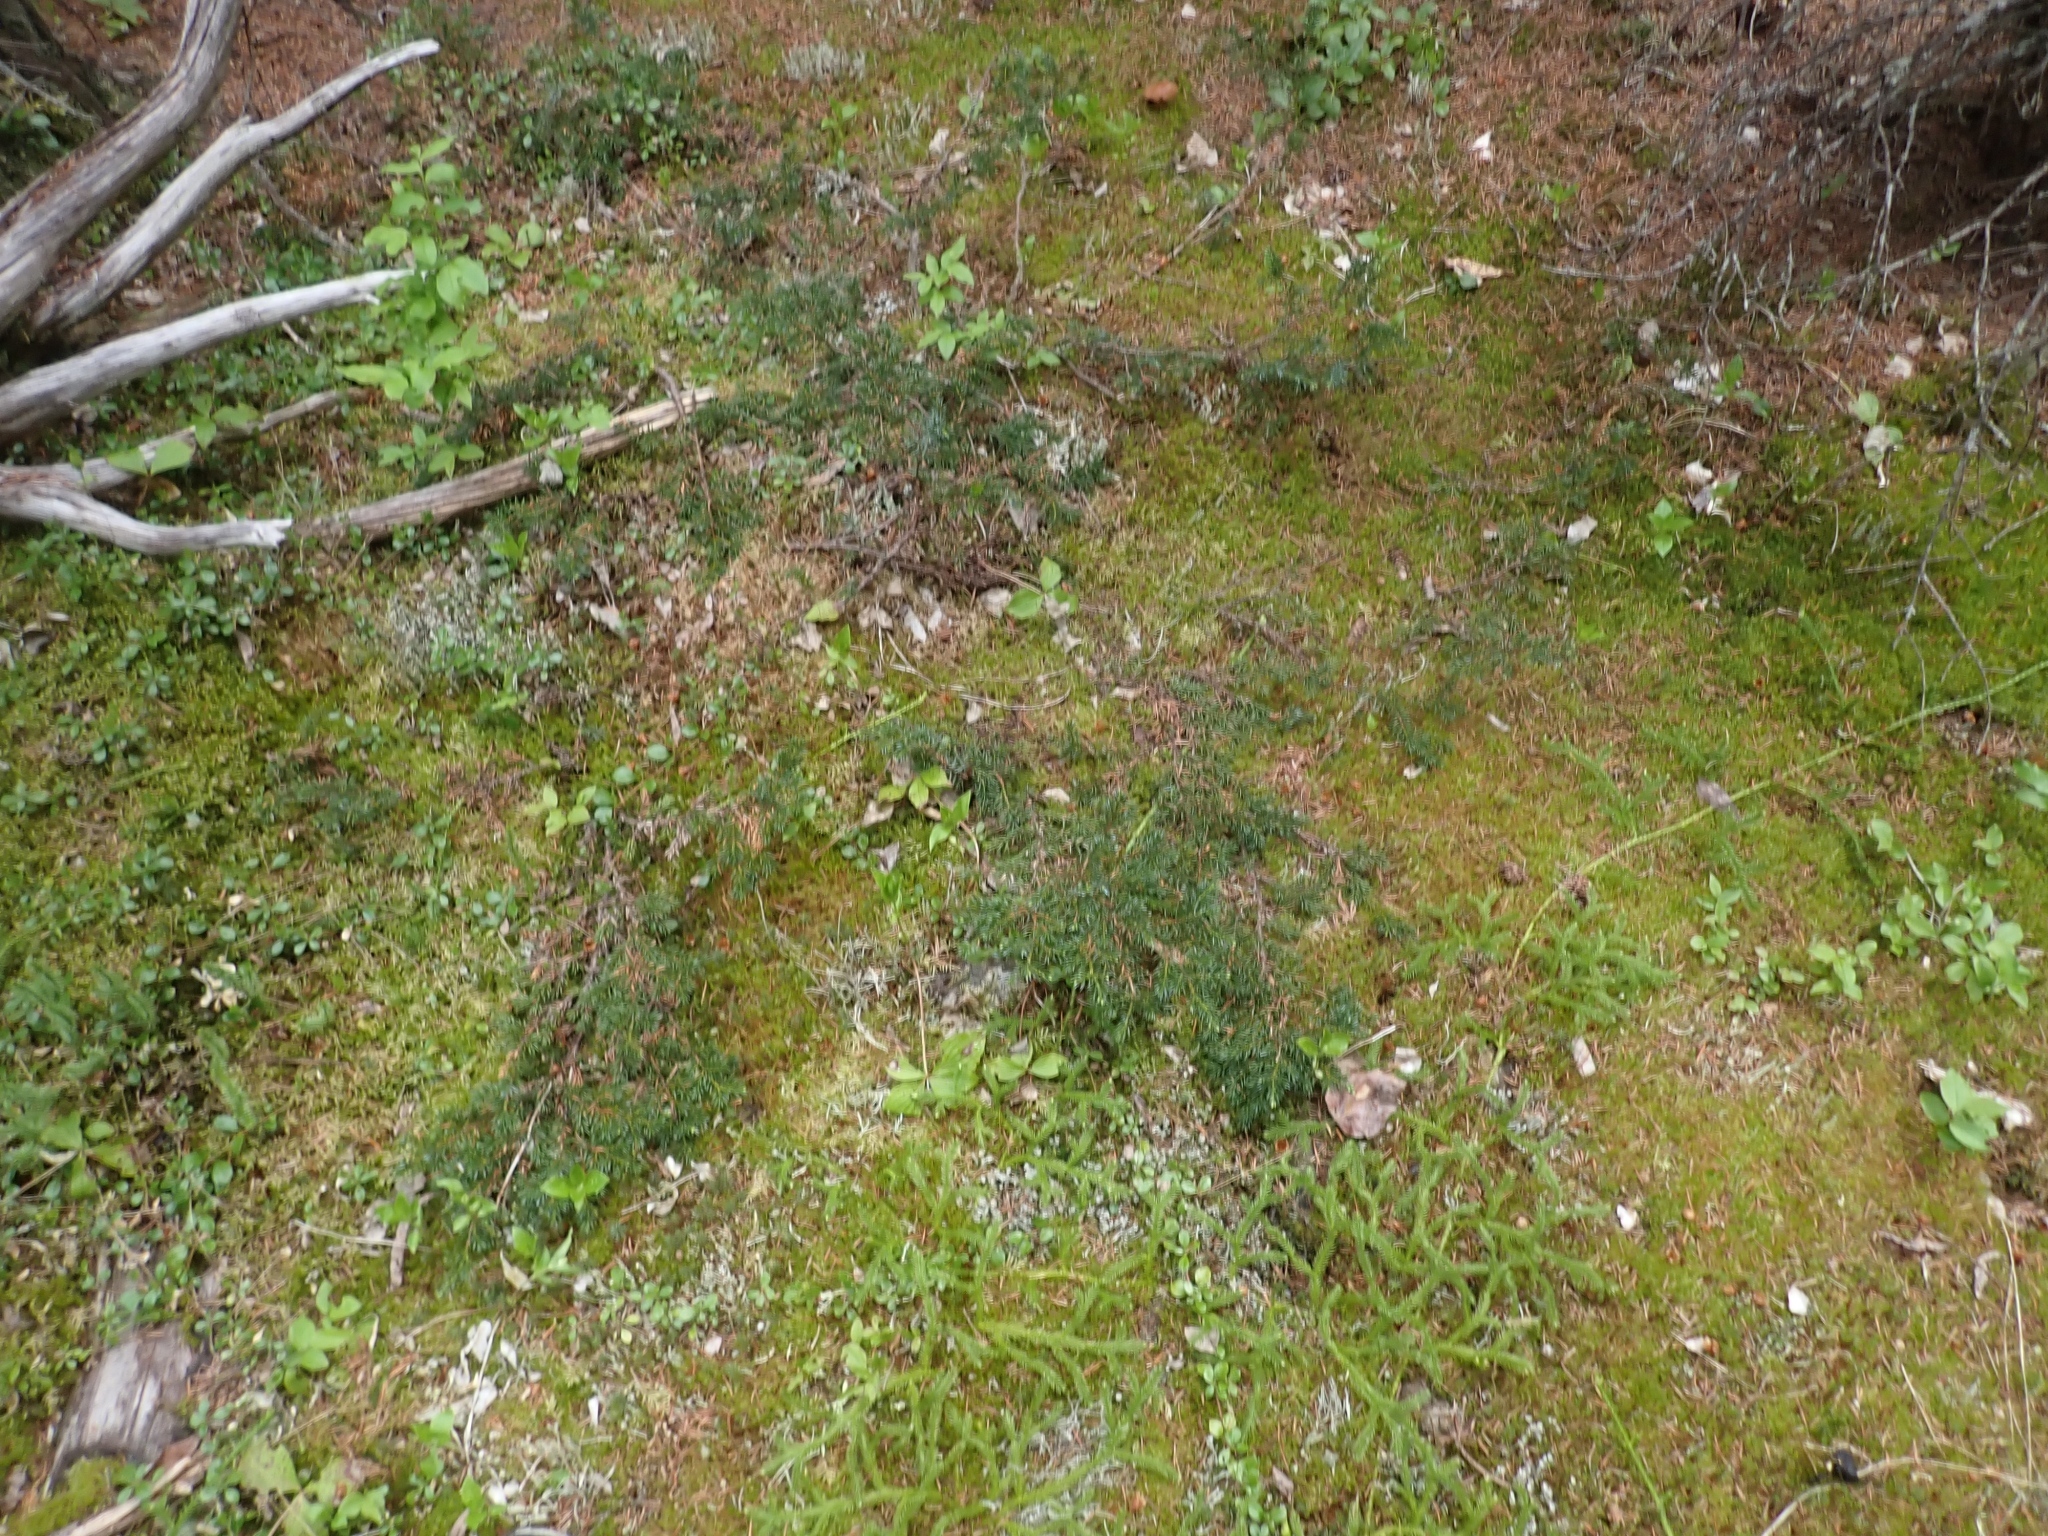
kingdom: Plantae
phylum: Tracheophyta
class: Pinopsida
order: Pinales
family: Cupressaceae
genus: Juniperus
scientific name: Juniperus communis
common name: Common juniper
